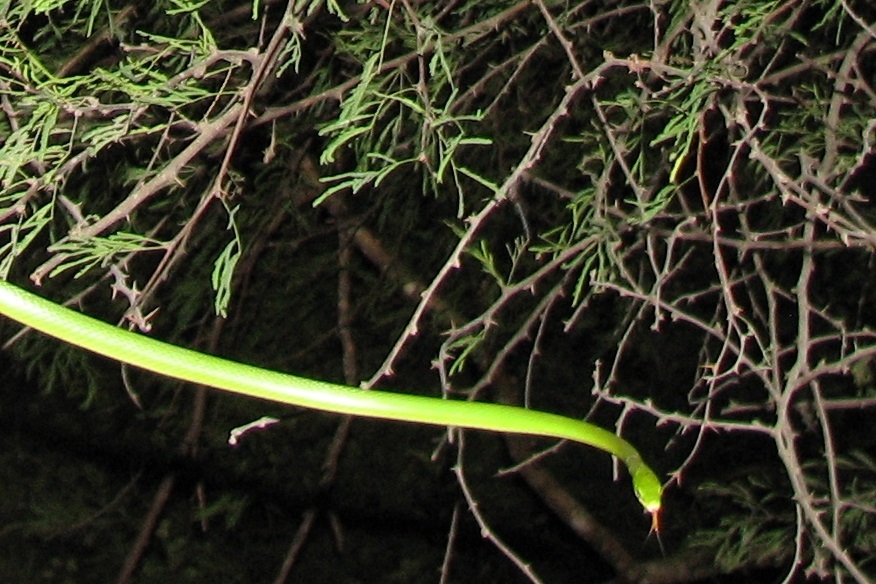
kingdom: Animalia
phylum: Chordata
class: Squamata
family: Colubridae
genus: Opheodrys
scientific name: Opheodrys aestivus
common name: Rough greensnake
